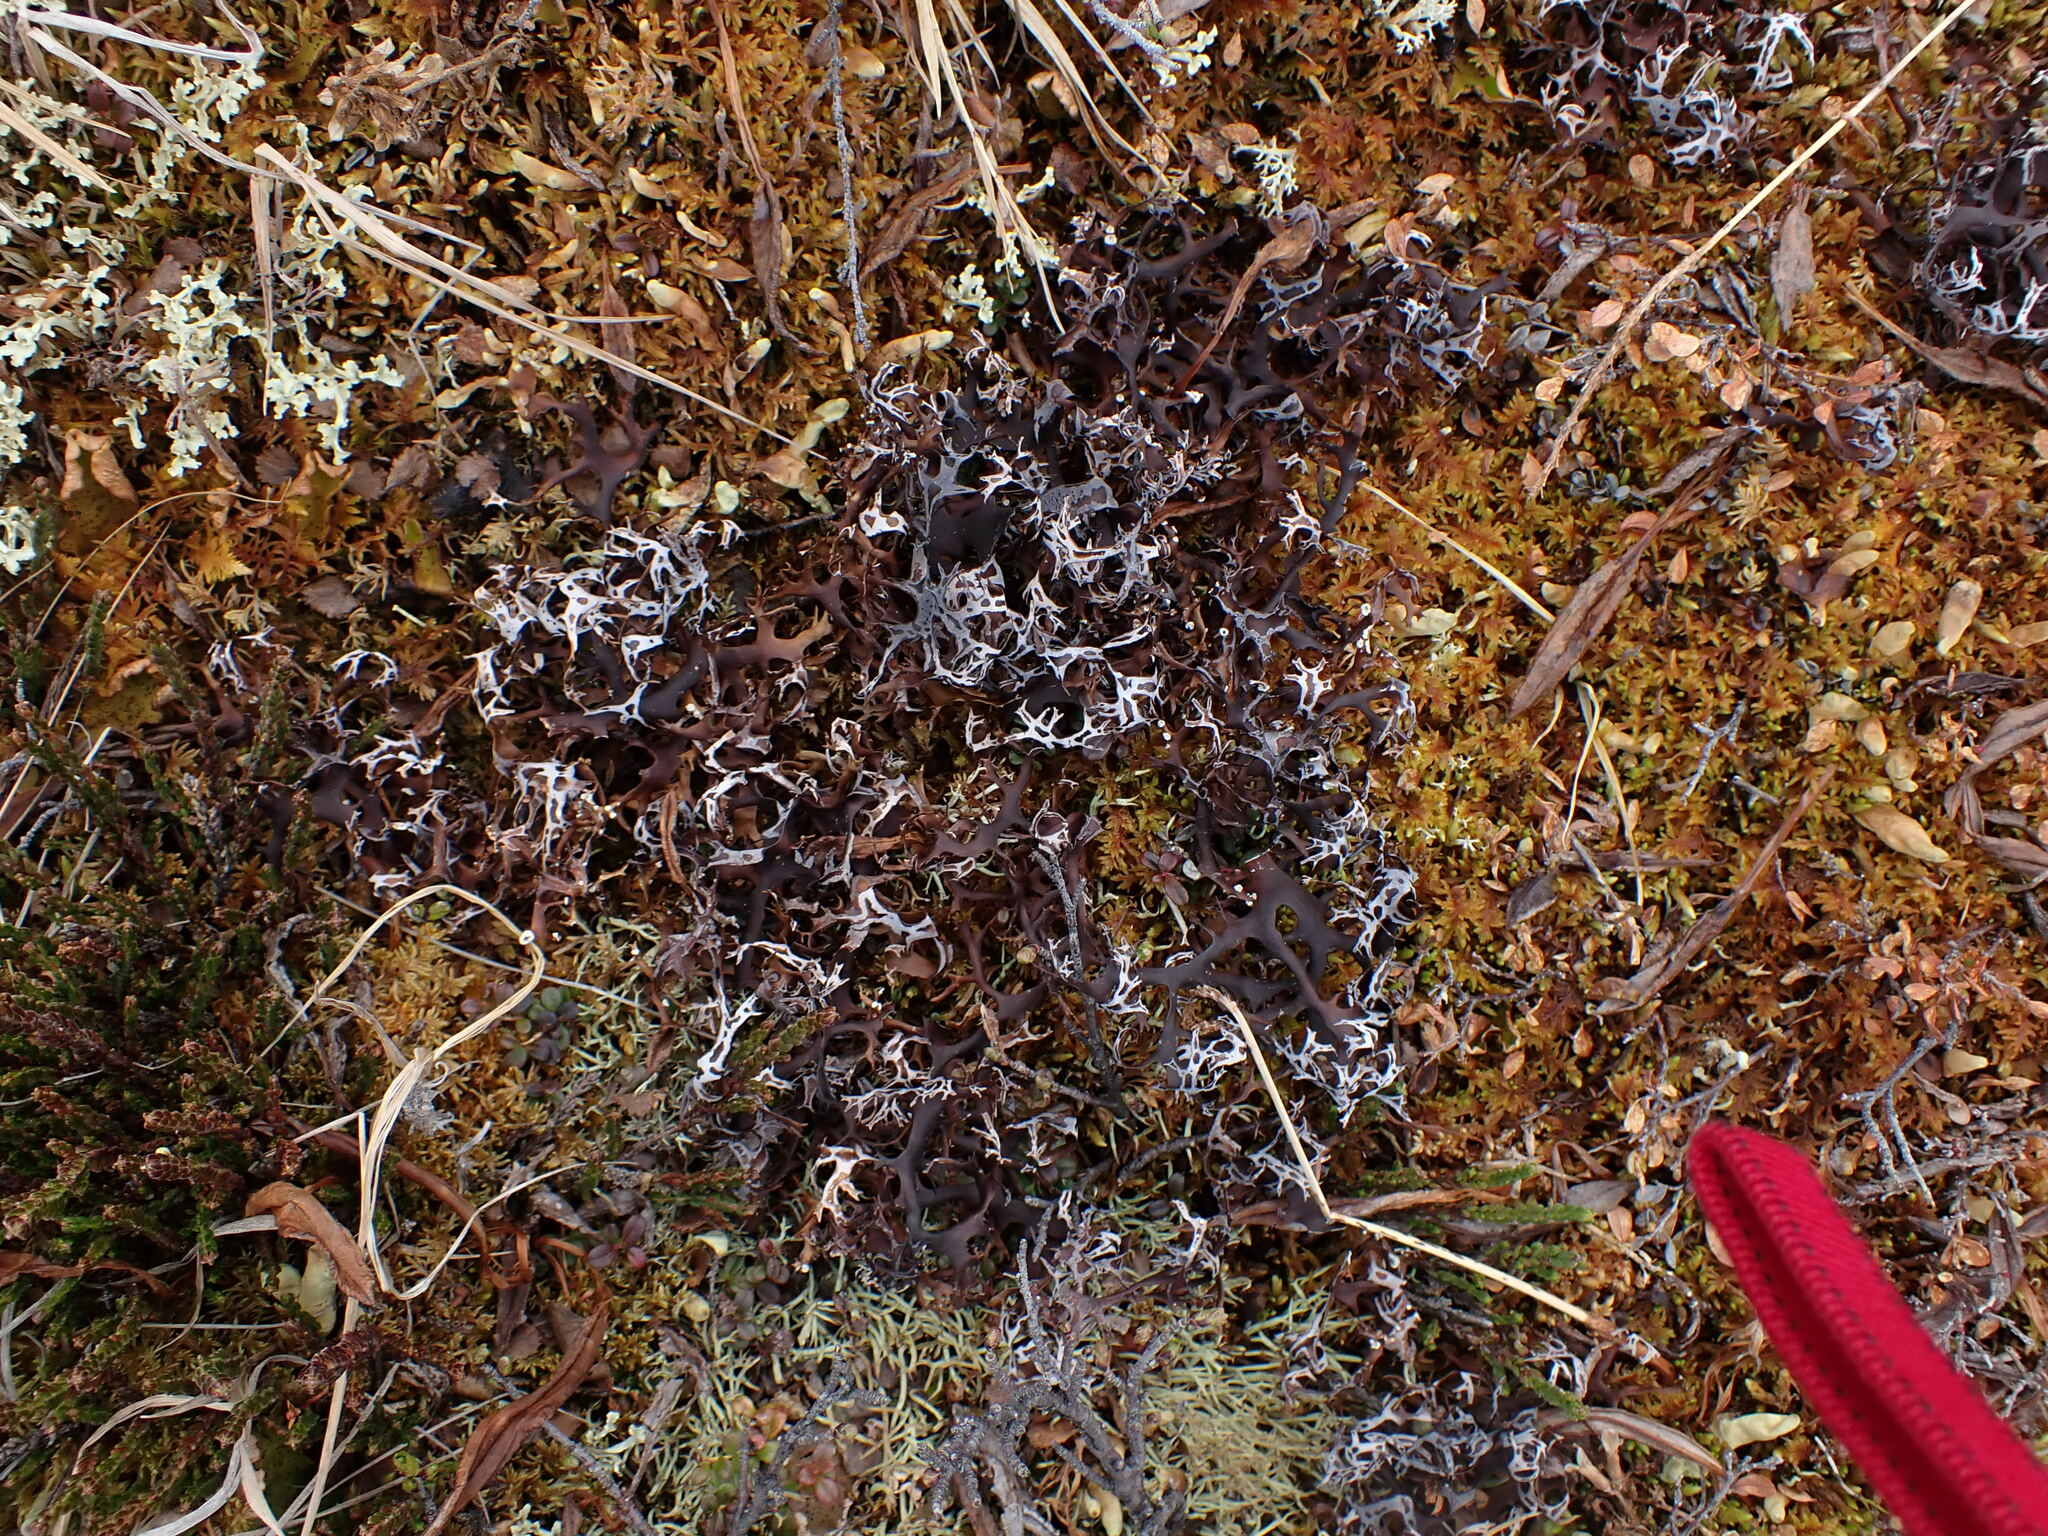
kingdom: Fungi
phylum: Ascomycota
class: Lecanoromycetes
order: Lecanorales
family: Parmeliaceae
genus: Nephromopsis
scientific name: Nephromopsis richardsonii
